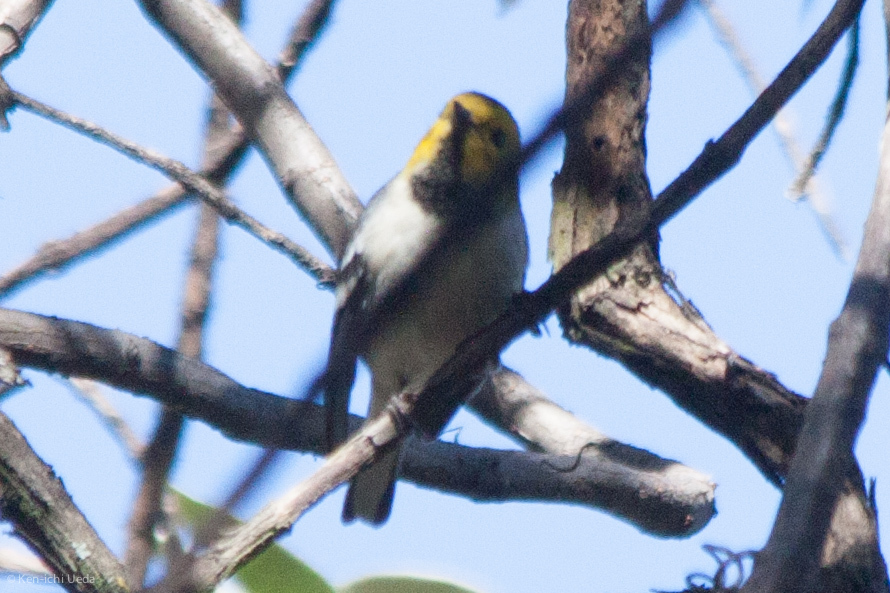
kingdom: Animalia
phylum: Chordata
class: Aves
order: Passeriformes
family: Parulidae
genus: Setophaga
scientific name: Setophaga occidentalis
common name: Hermit warbler
